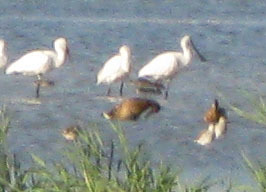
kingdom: Animalia
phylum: Chordata
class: Aves
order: Anseriformes
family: Anatidae
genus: Spatula
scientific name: Spatula querquedula
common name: Garganey
